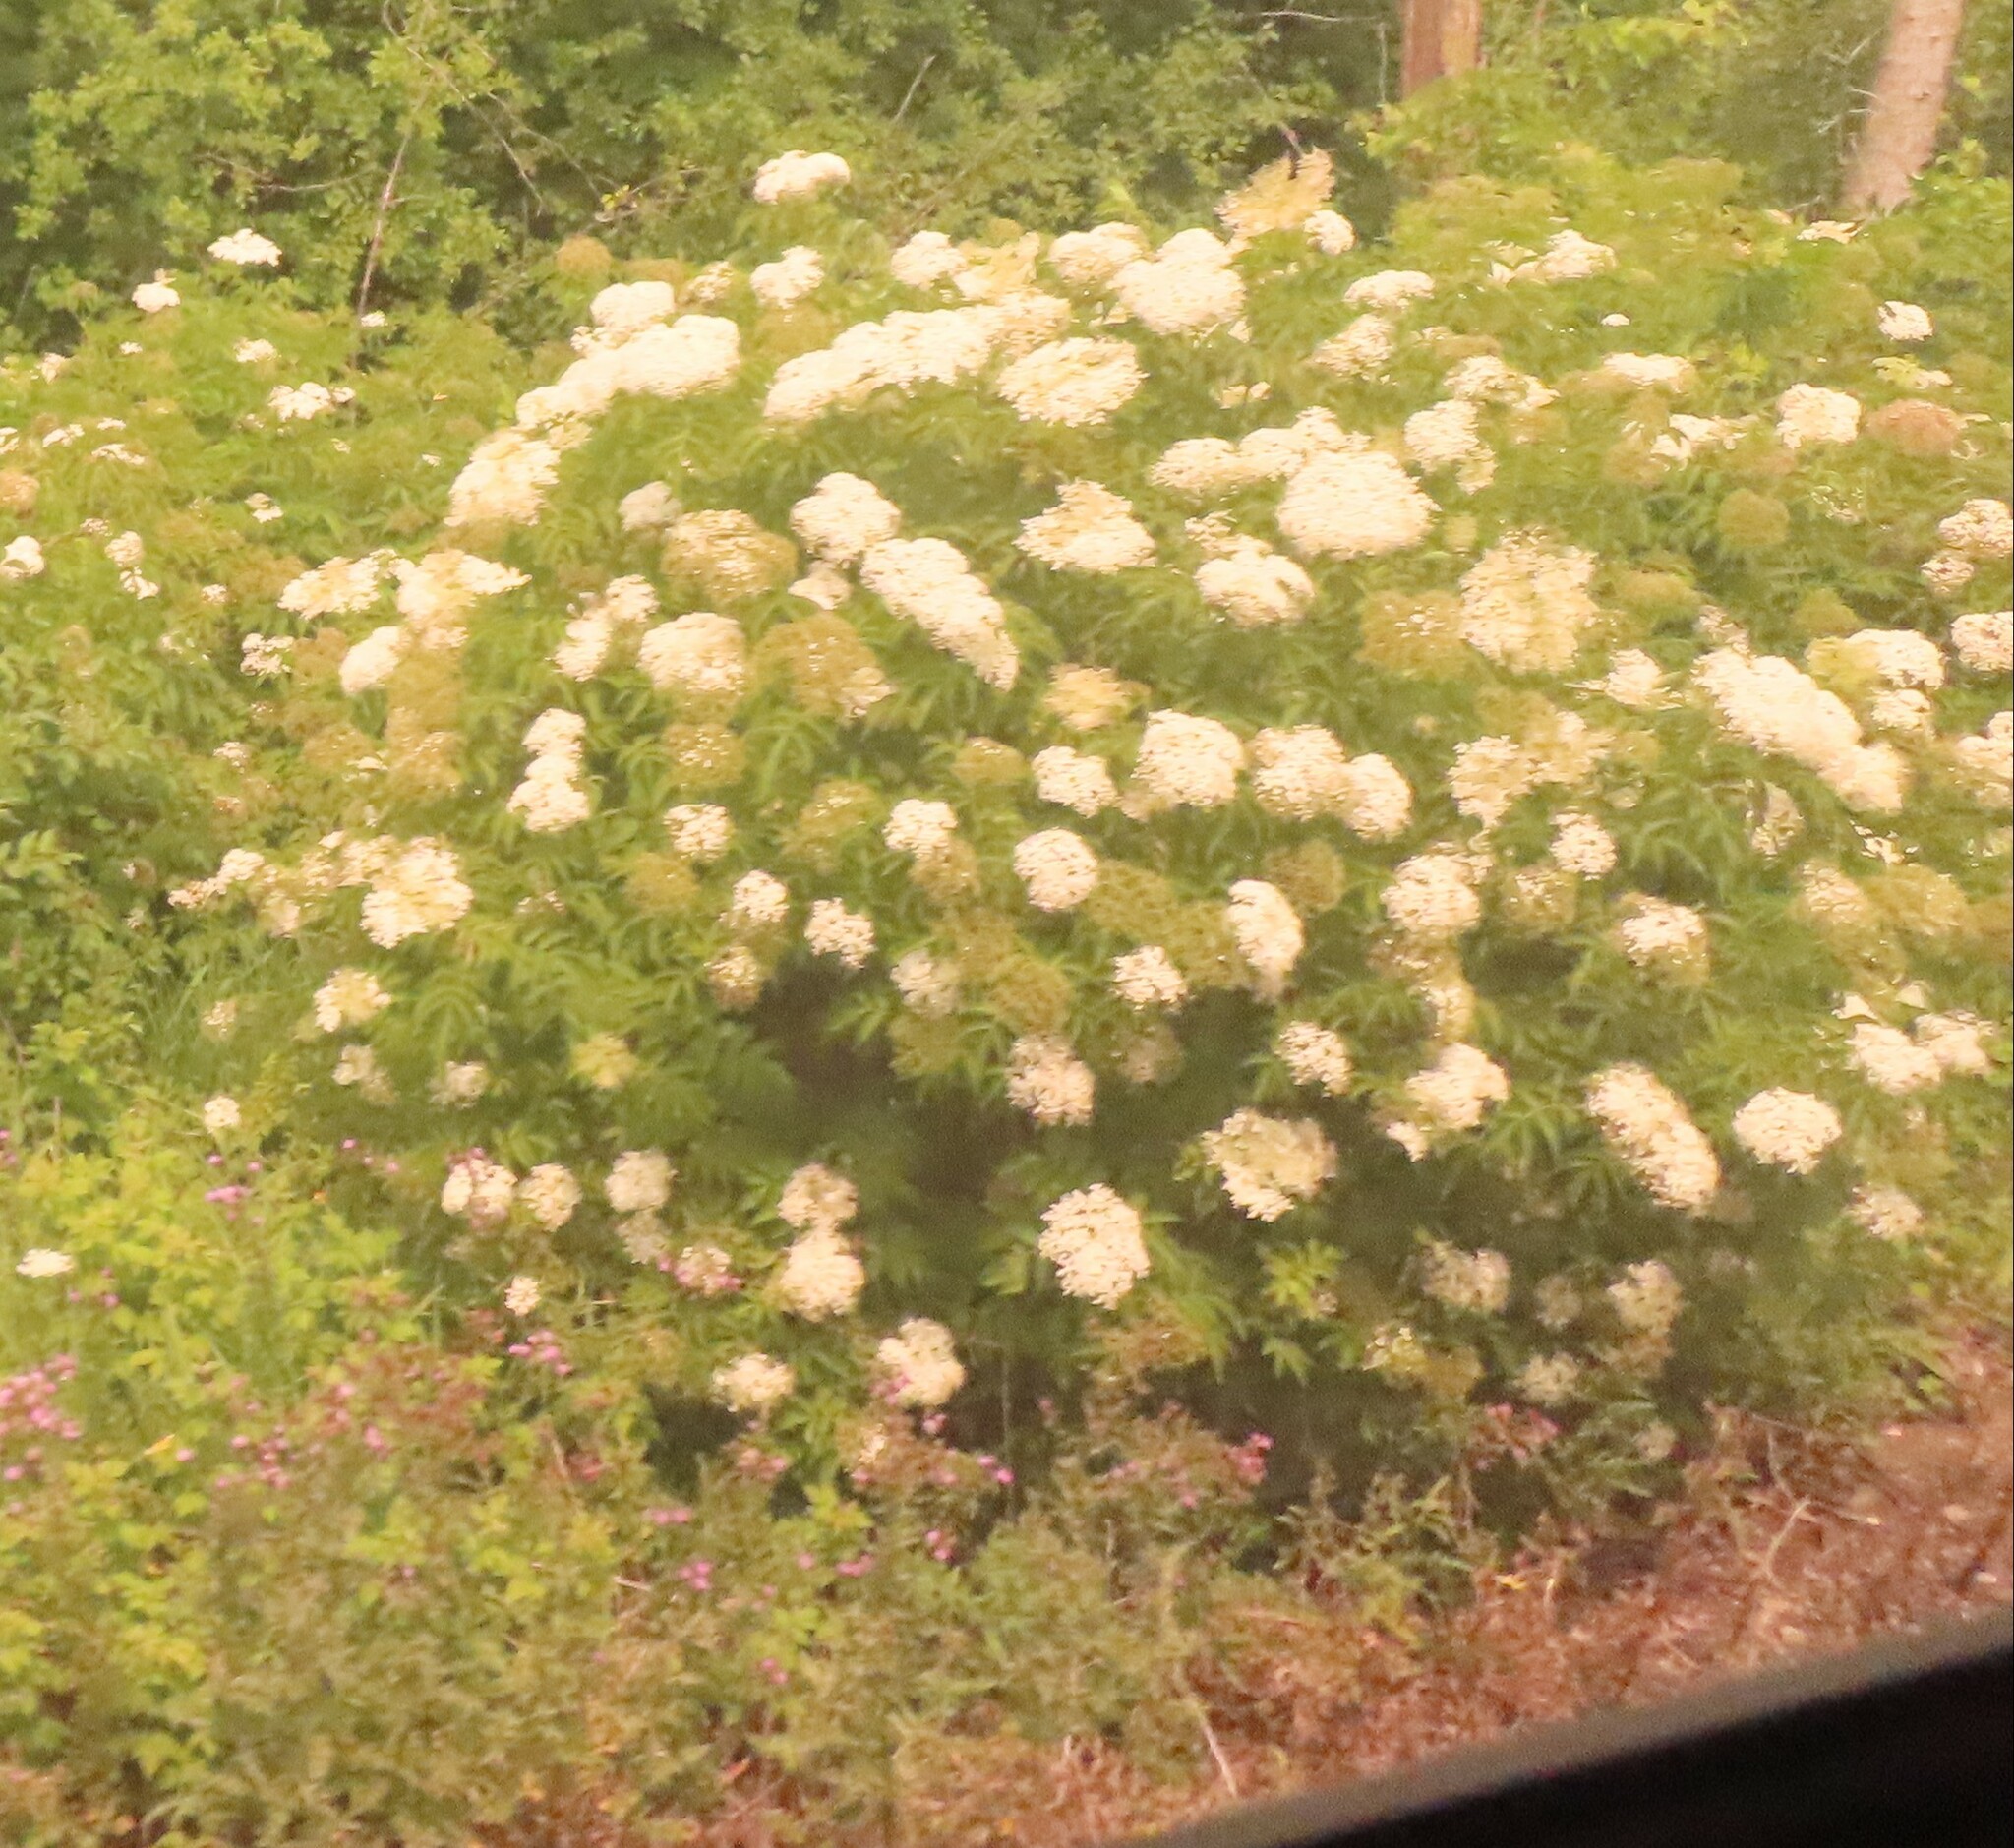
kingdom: Plantae
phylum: Tracheophyta
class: Magnoliopsida
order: Dipsacales
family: Viburnaceae
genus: Sambucus
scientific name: Sambucus canadensis
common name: American elder
